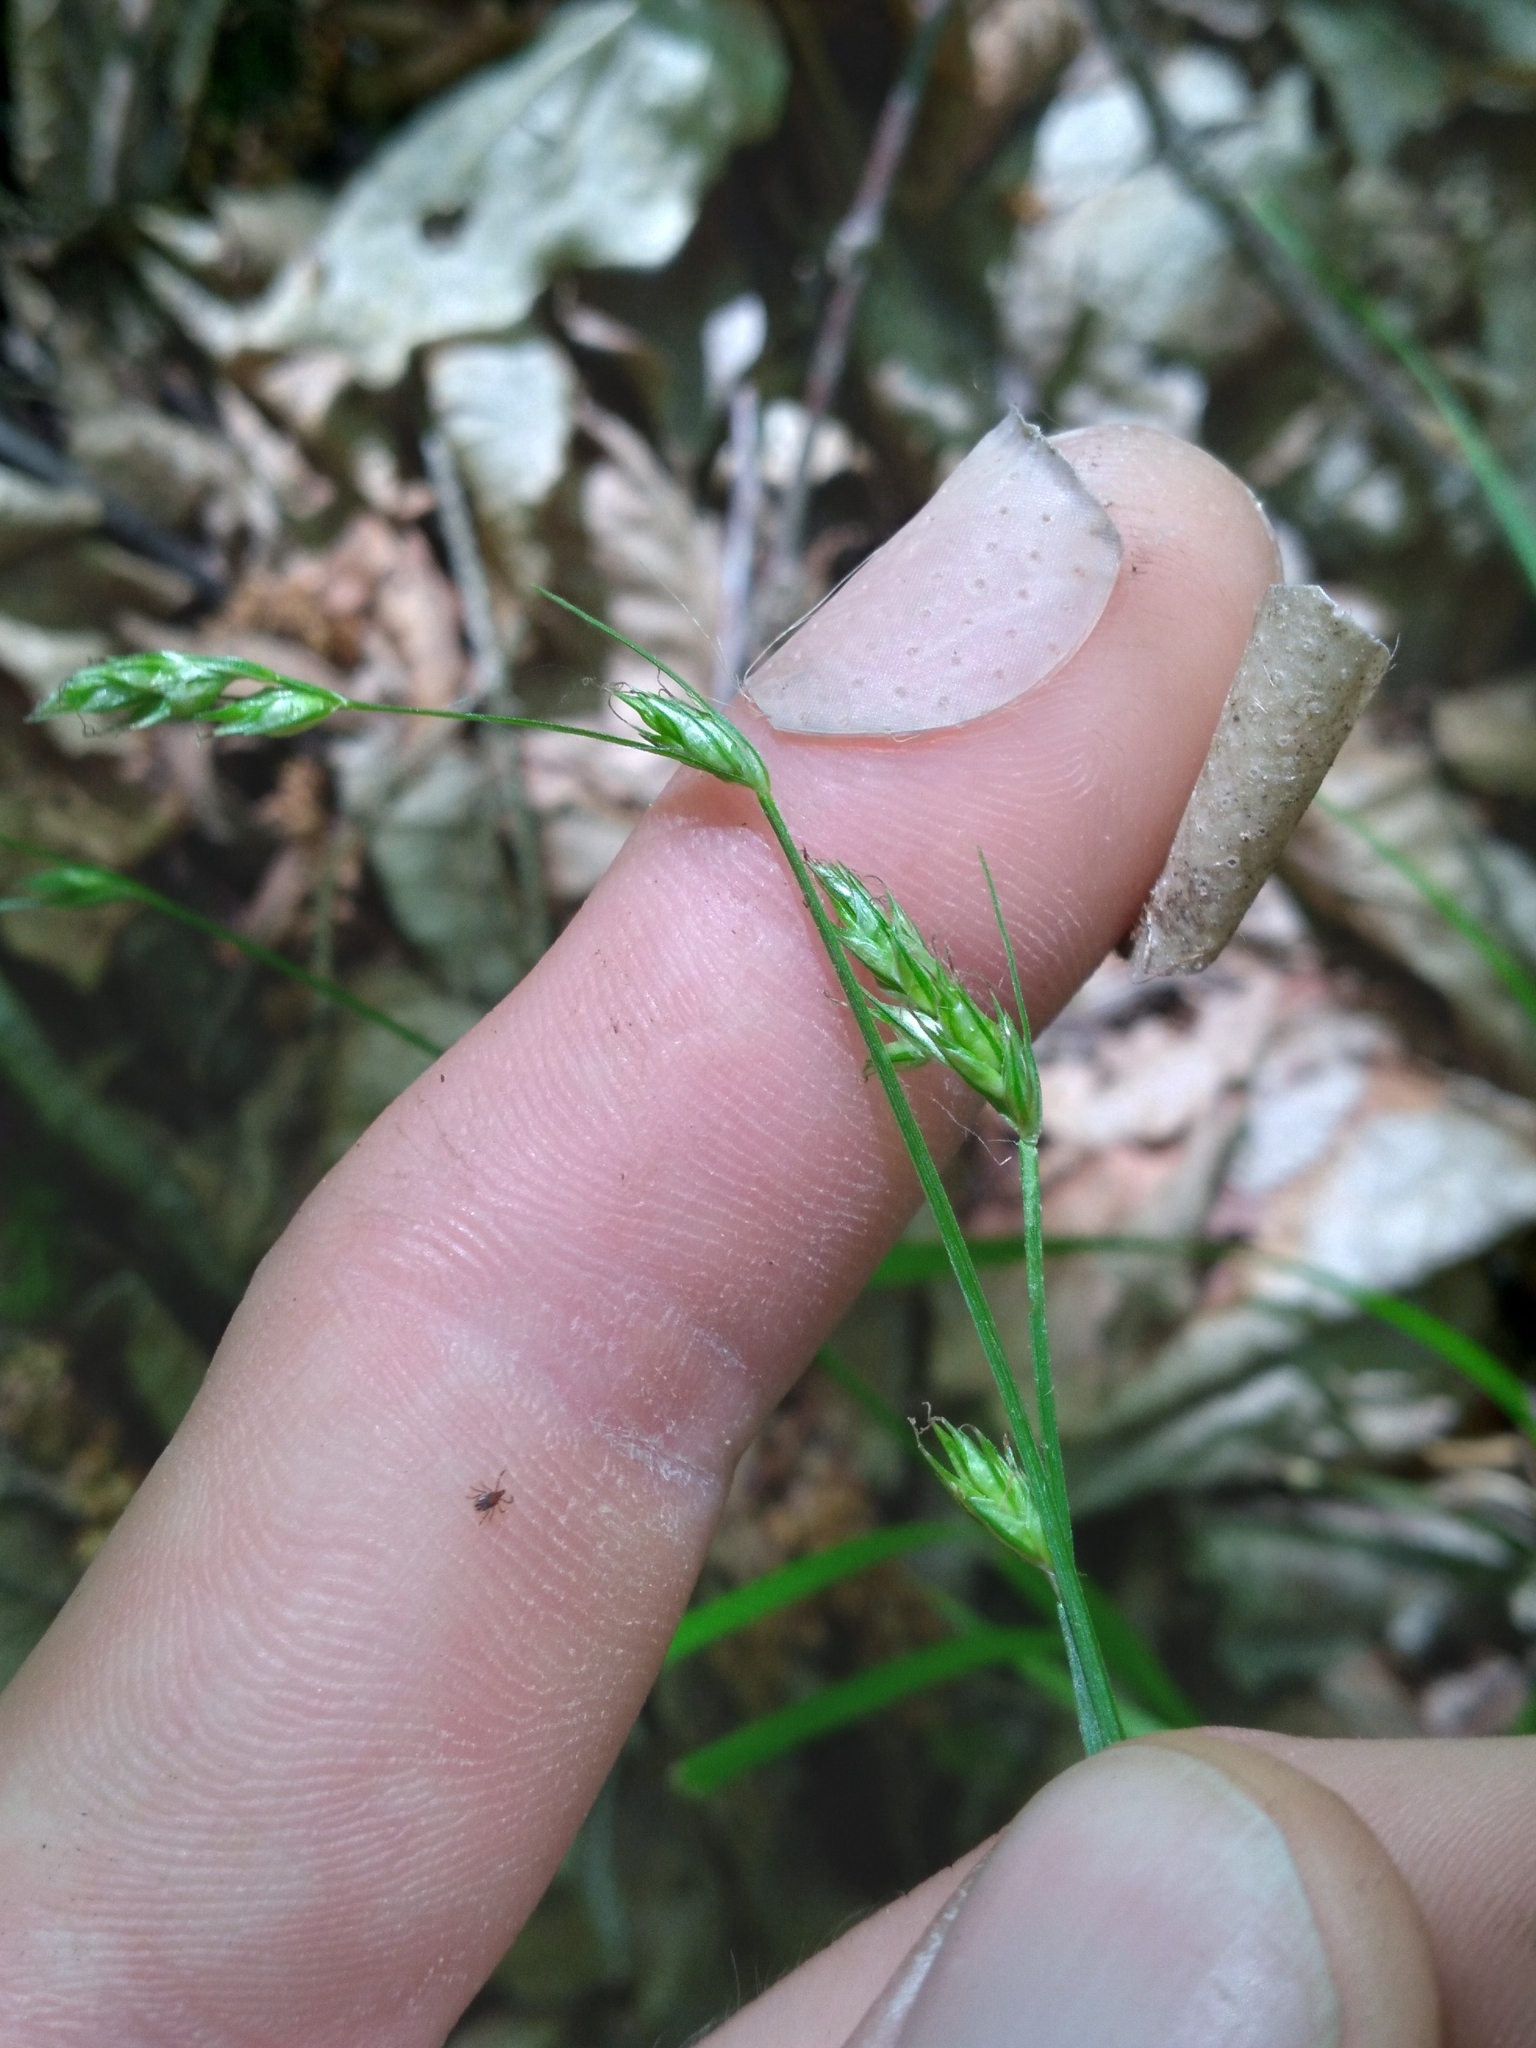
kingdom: Plantae
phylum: Tracheophyta
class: Liliopsida
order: Poales
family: Cyperaceae
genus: Carex
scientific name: Carex deweyana
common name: Dewey's sedge
